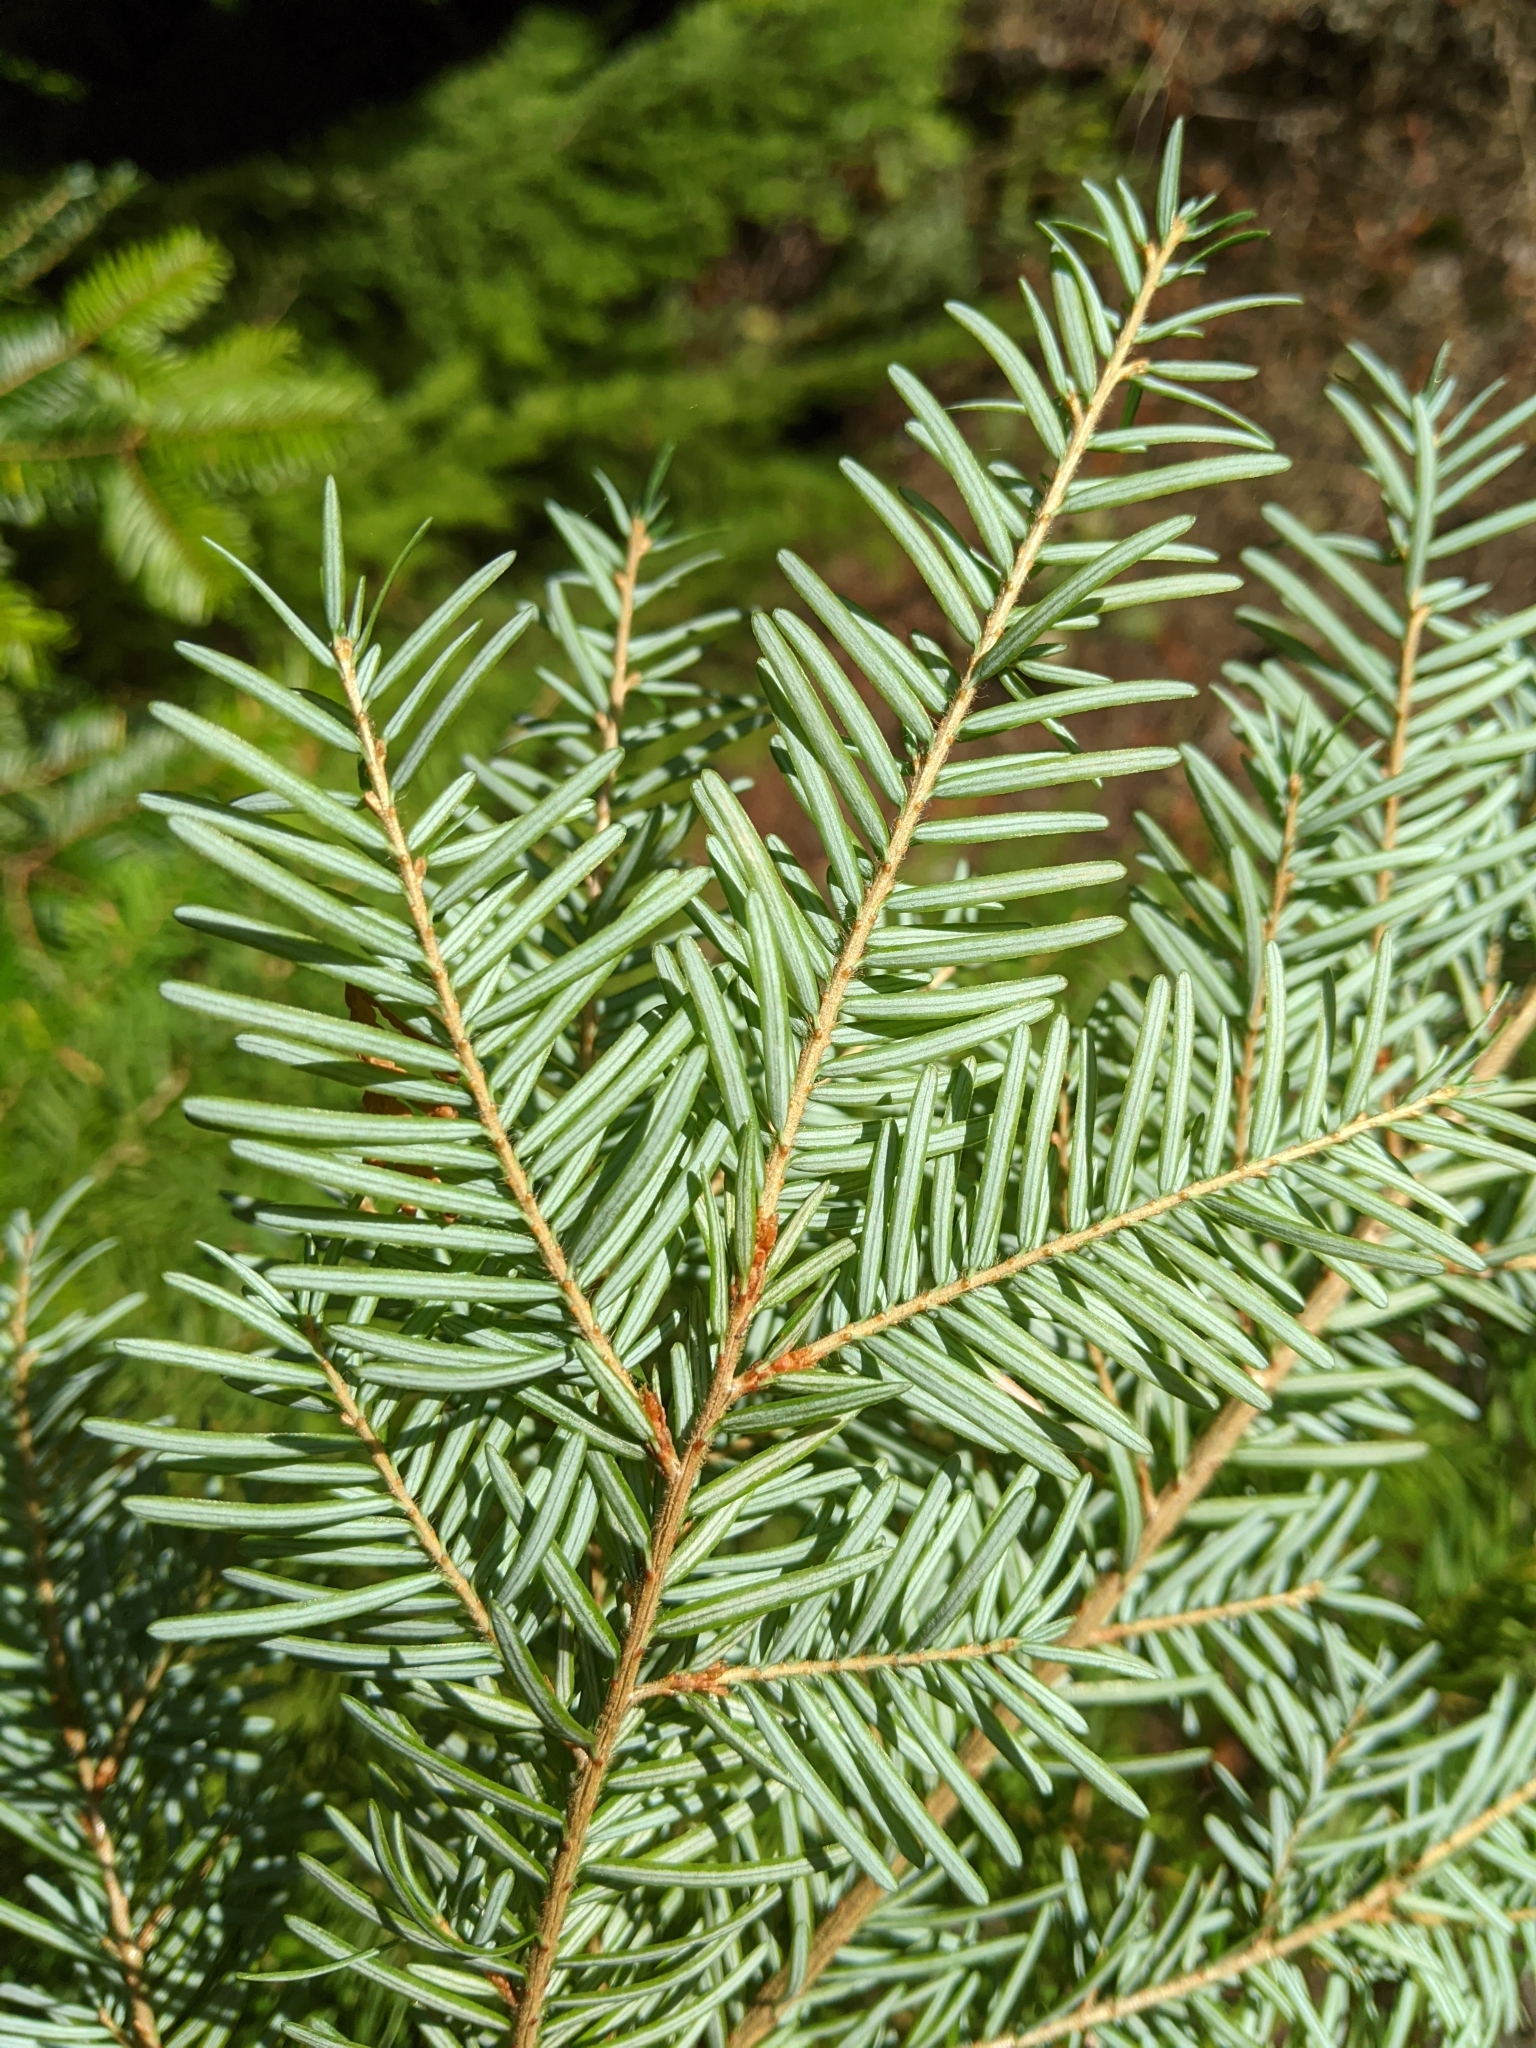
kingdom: Plantae
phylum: Tracheophyta
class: Pinopsida
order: Pinales
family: Pinaceae
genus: Tsuga
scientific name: Tsuga heterophylla
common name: Western hemlock
